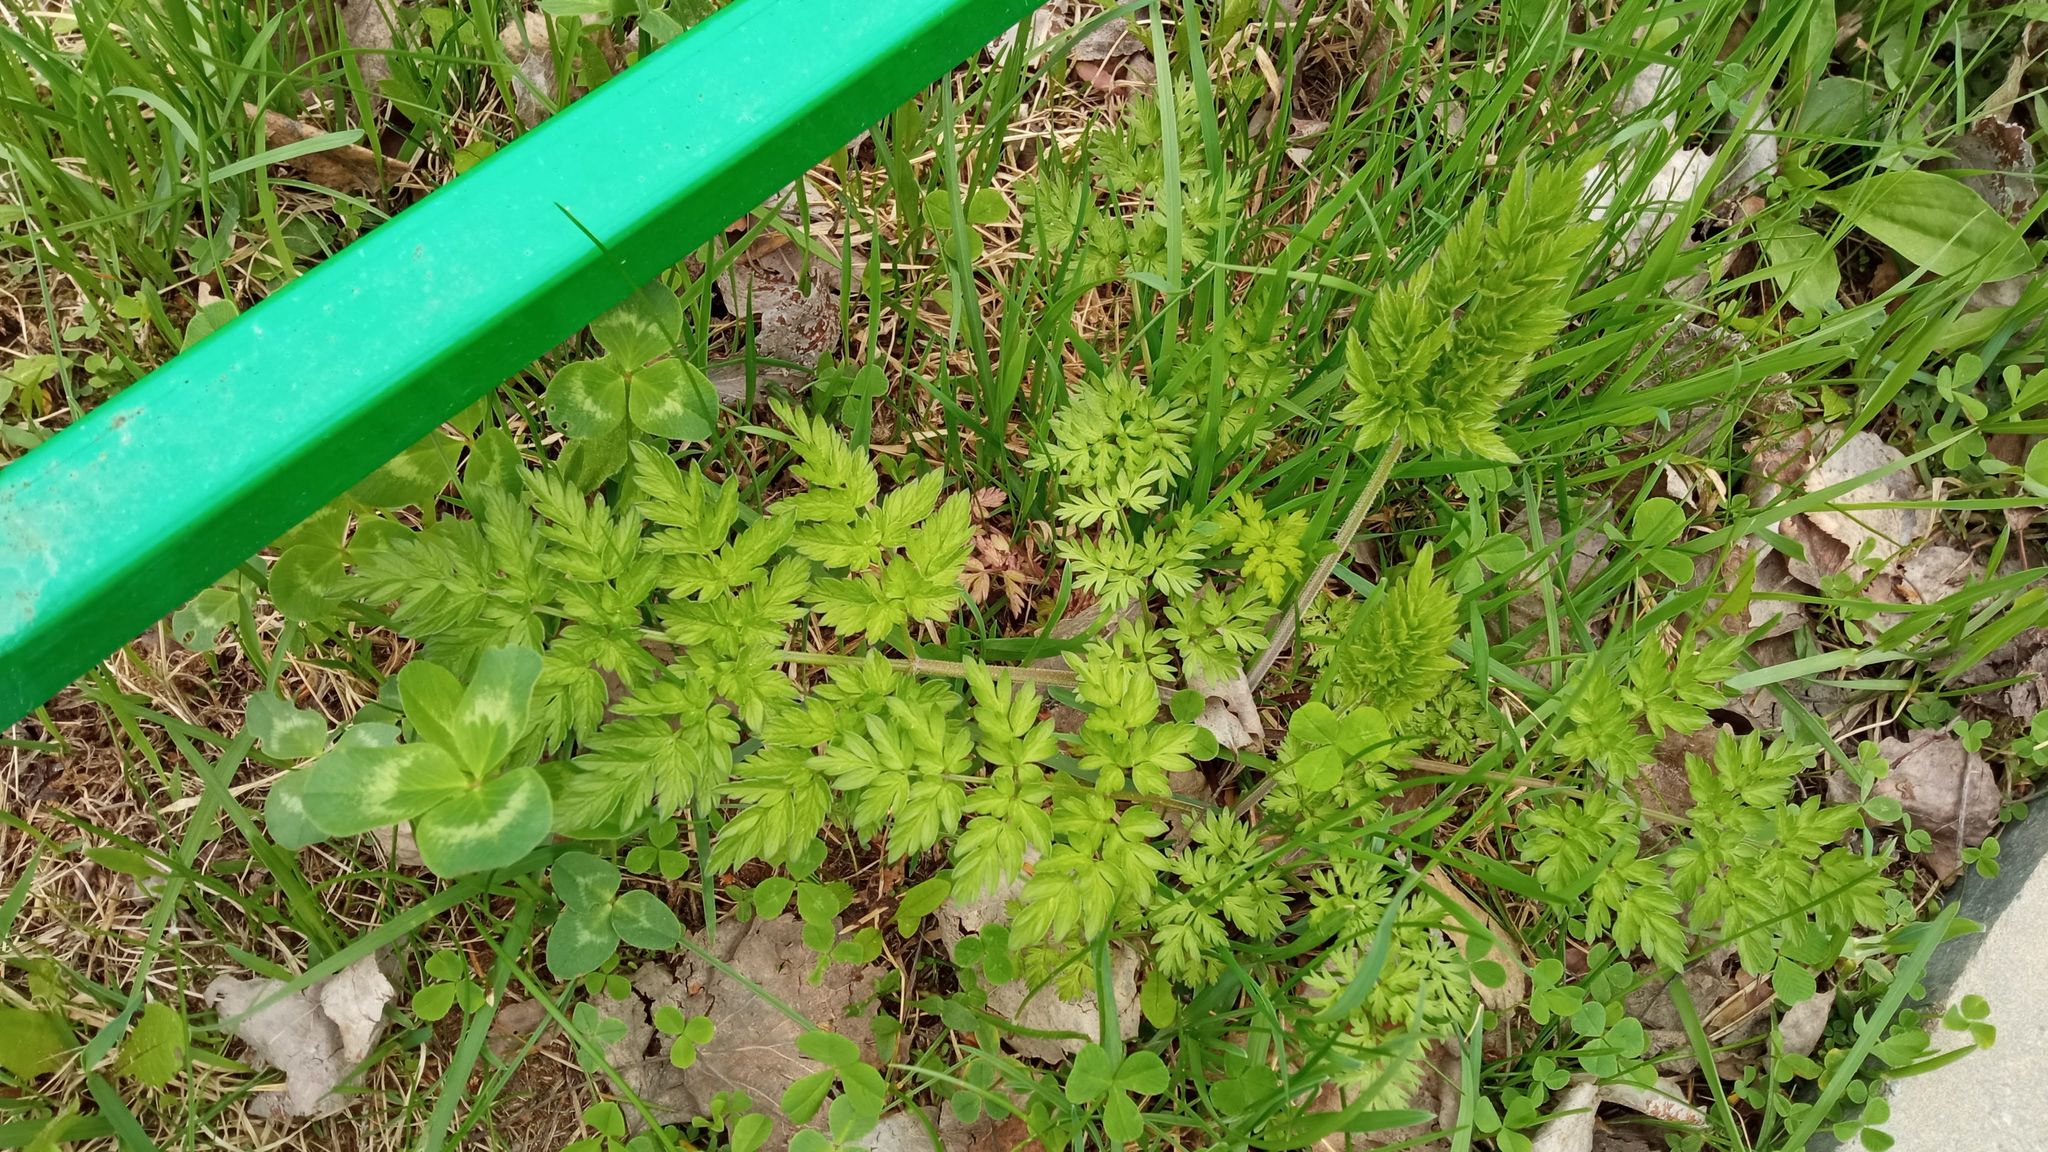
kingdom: Plantae
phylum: Tracheophyta
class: Magnoliopsida
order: Apiales
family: Apiaceae
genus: Anthriscus
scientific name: Anthriscus sylvestris
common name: Cow parsley
